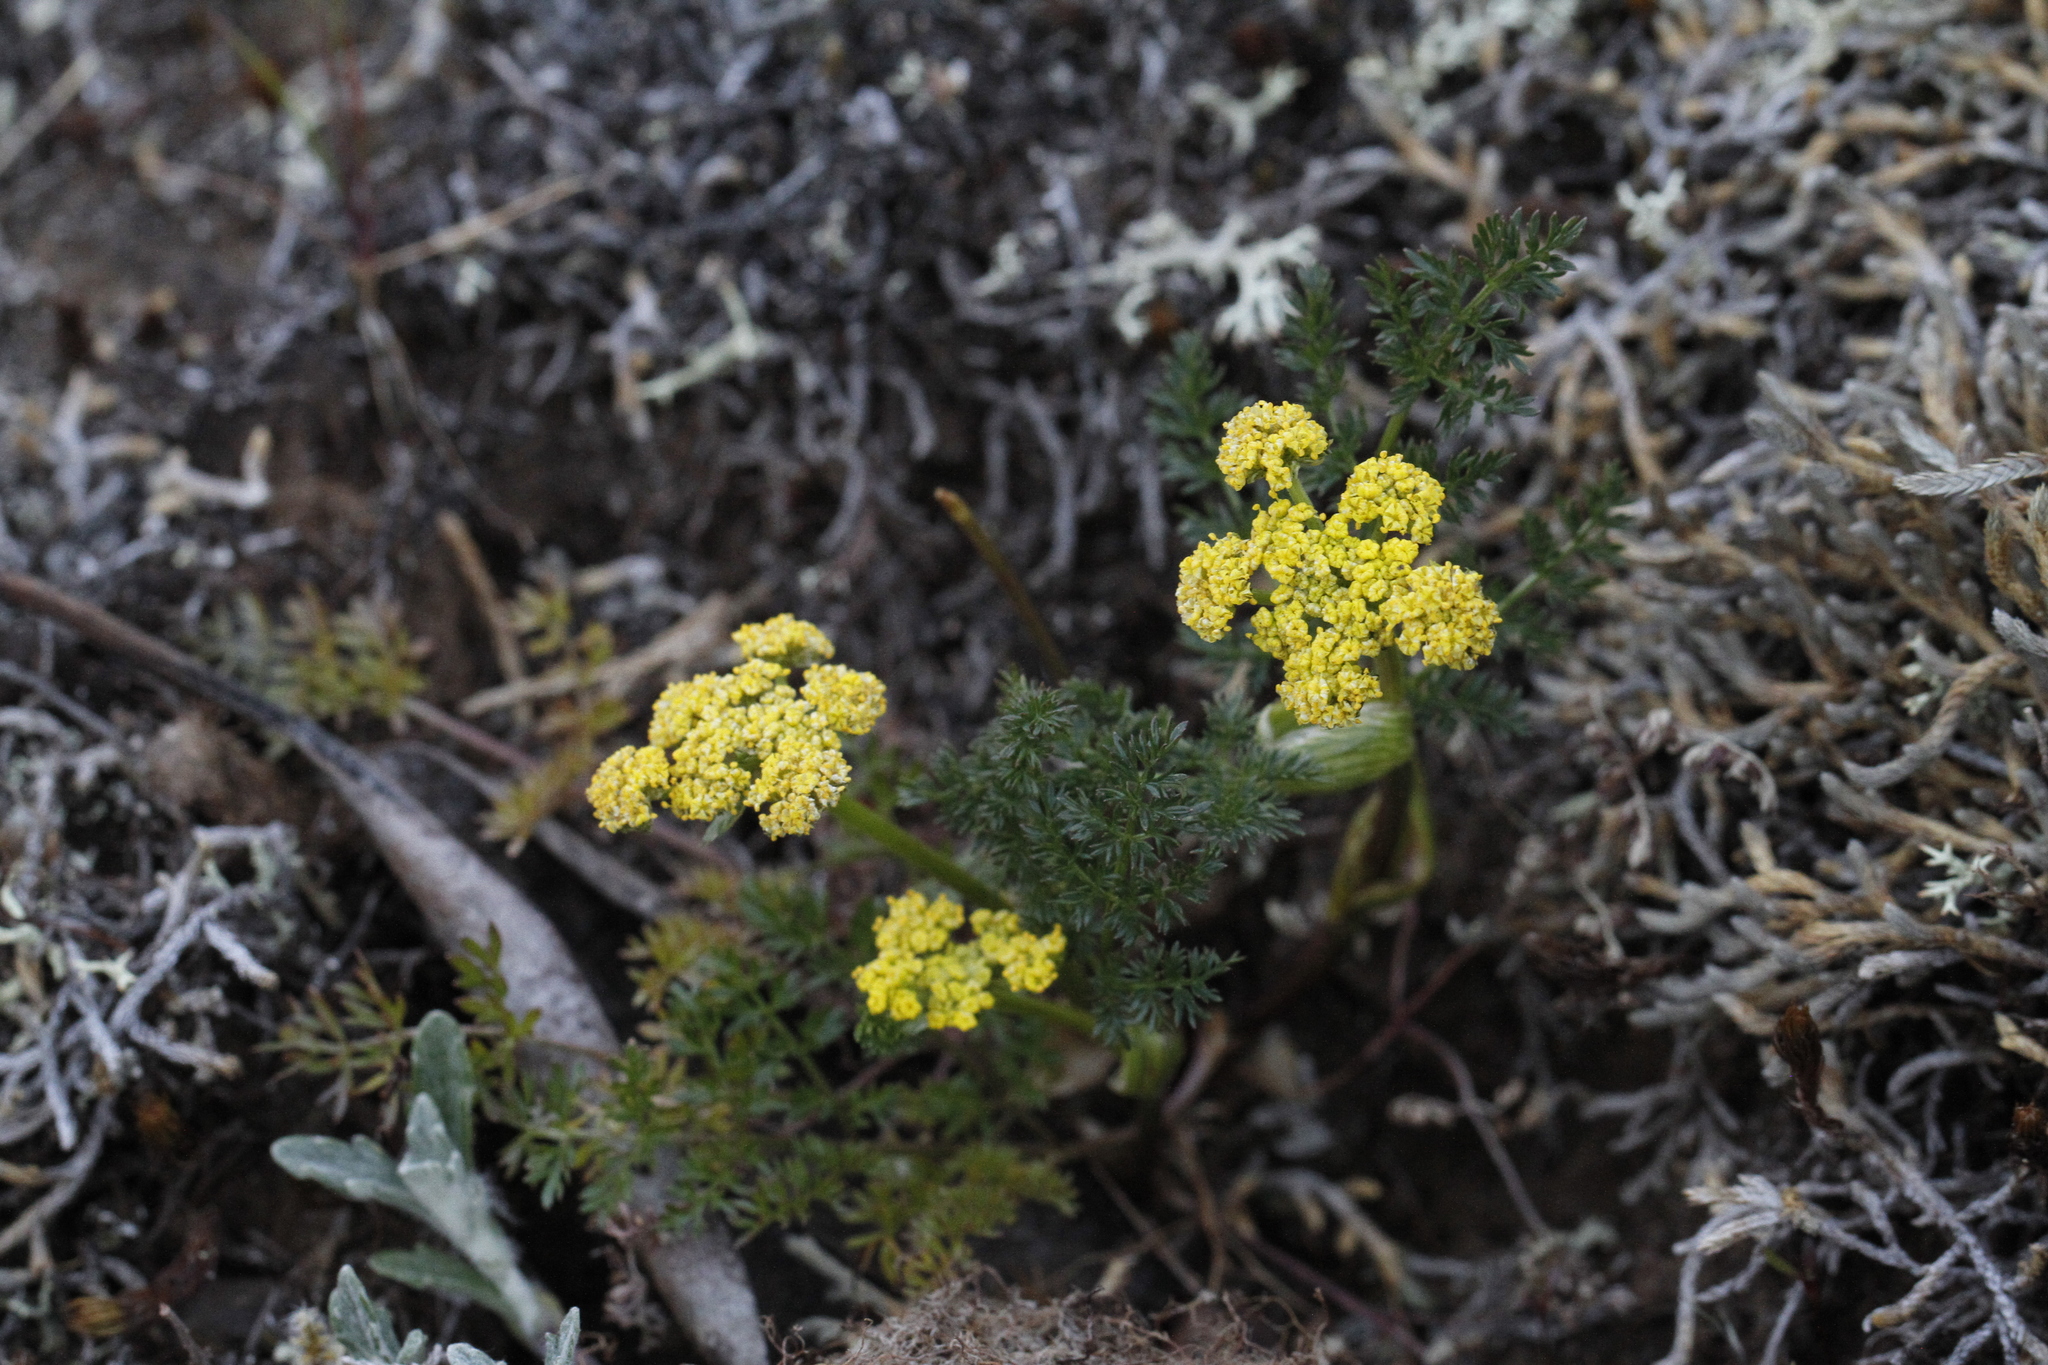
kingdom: Plantae
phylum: Tracheophyta
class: Magnoliopsida
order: Apiales
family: Apiaceae
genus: Lomatium
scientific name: Lomatium utriculatum
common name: Fine-leaf desert-parsley
